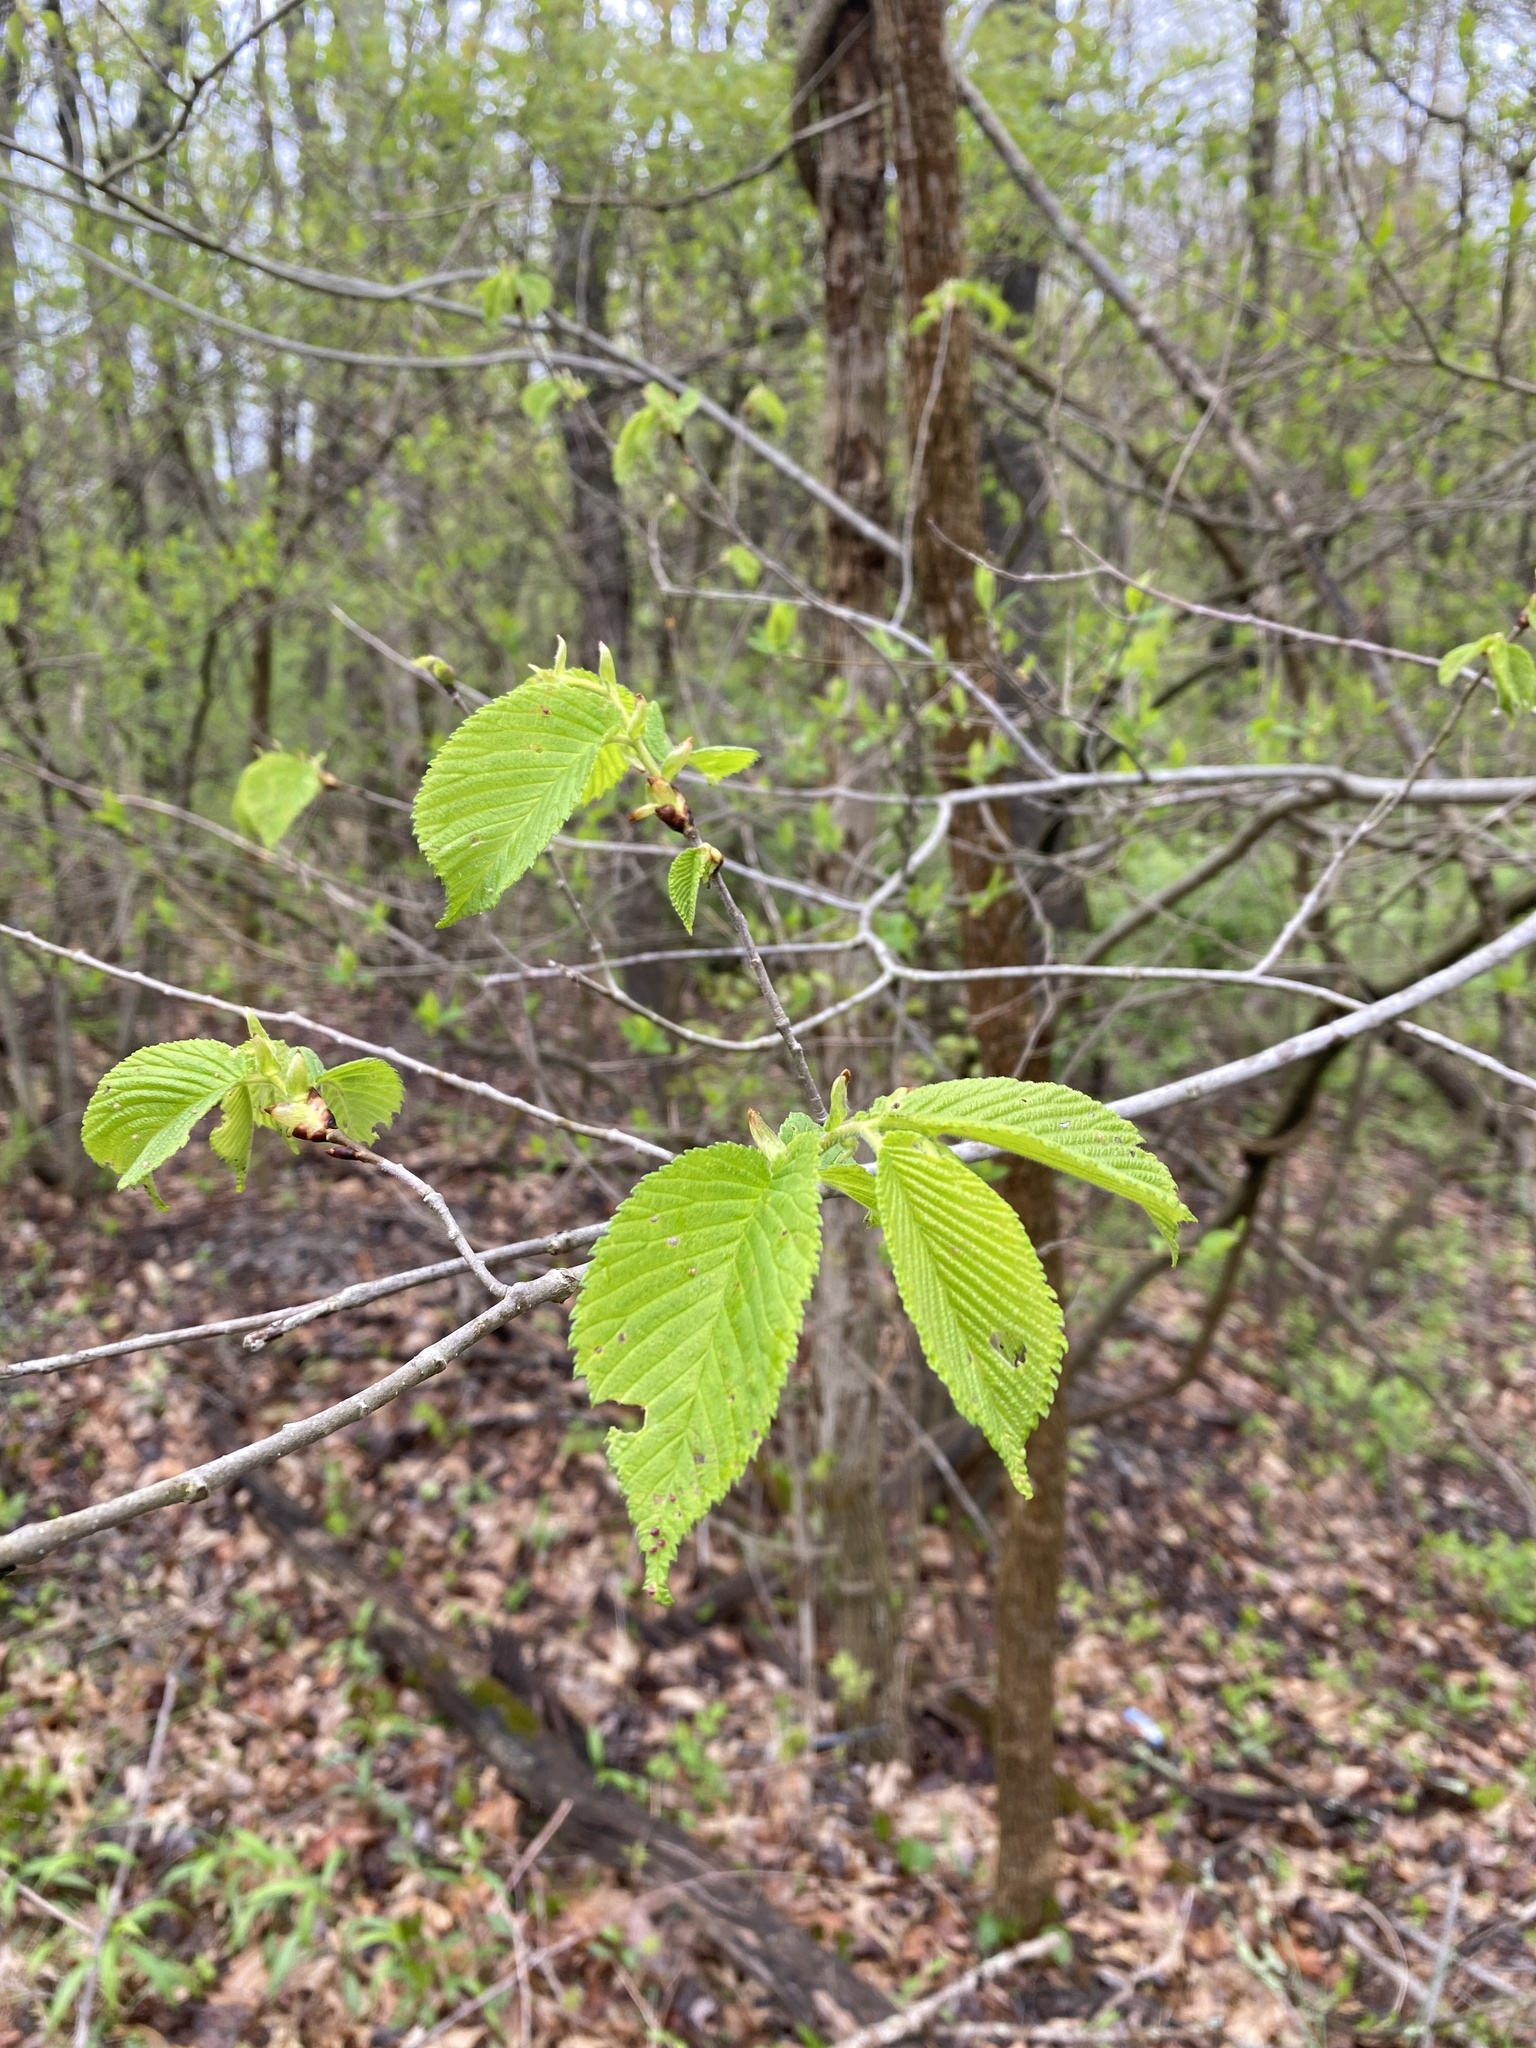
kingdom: Plantae
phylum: Tracheophyta
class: Magnoliopsida
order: Rosales
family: Ulmaceae
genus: Ulmus
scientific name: Ulmus rubra
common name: Slippery elm
